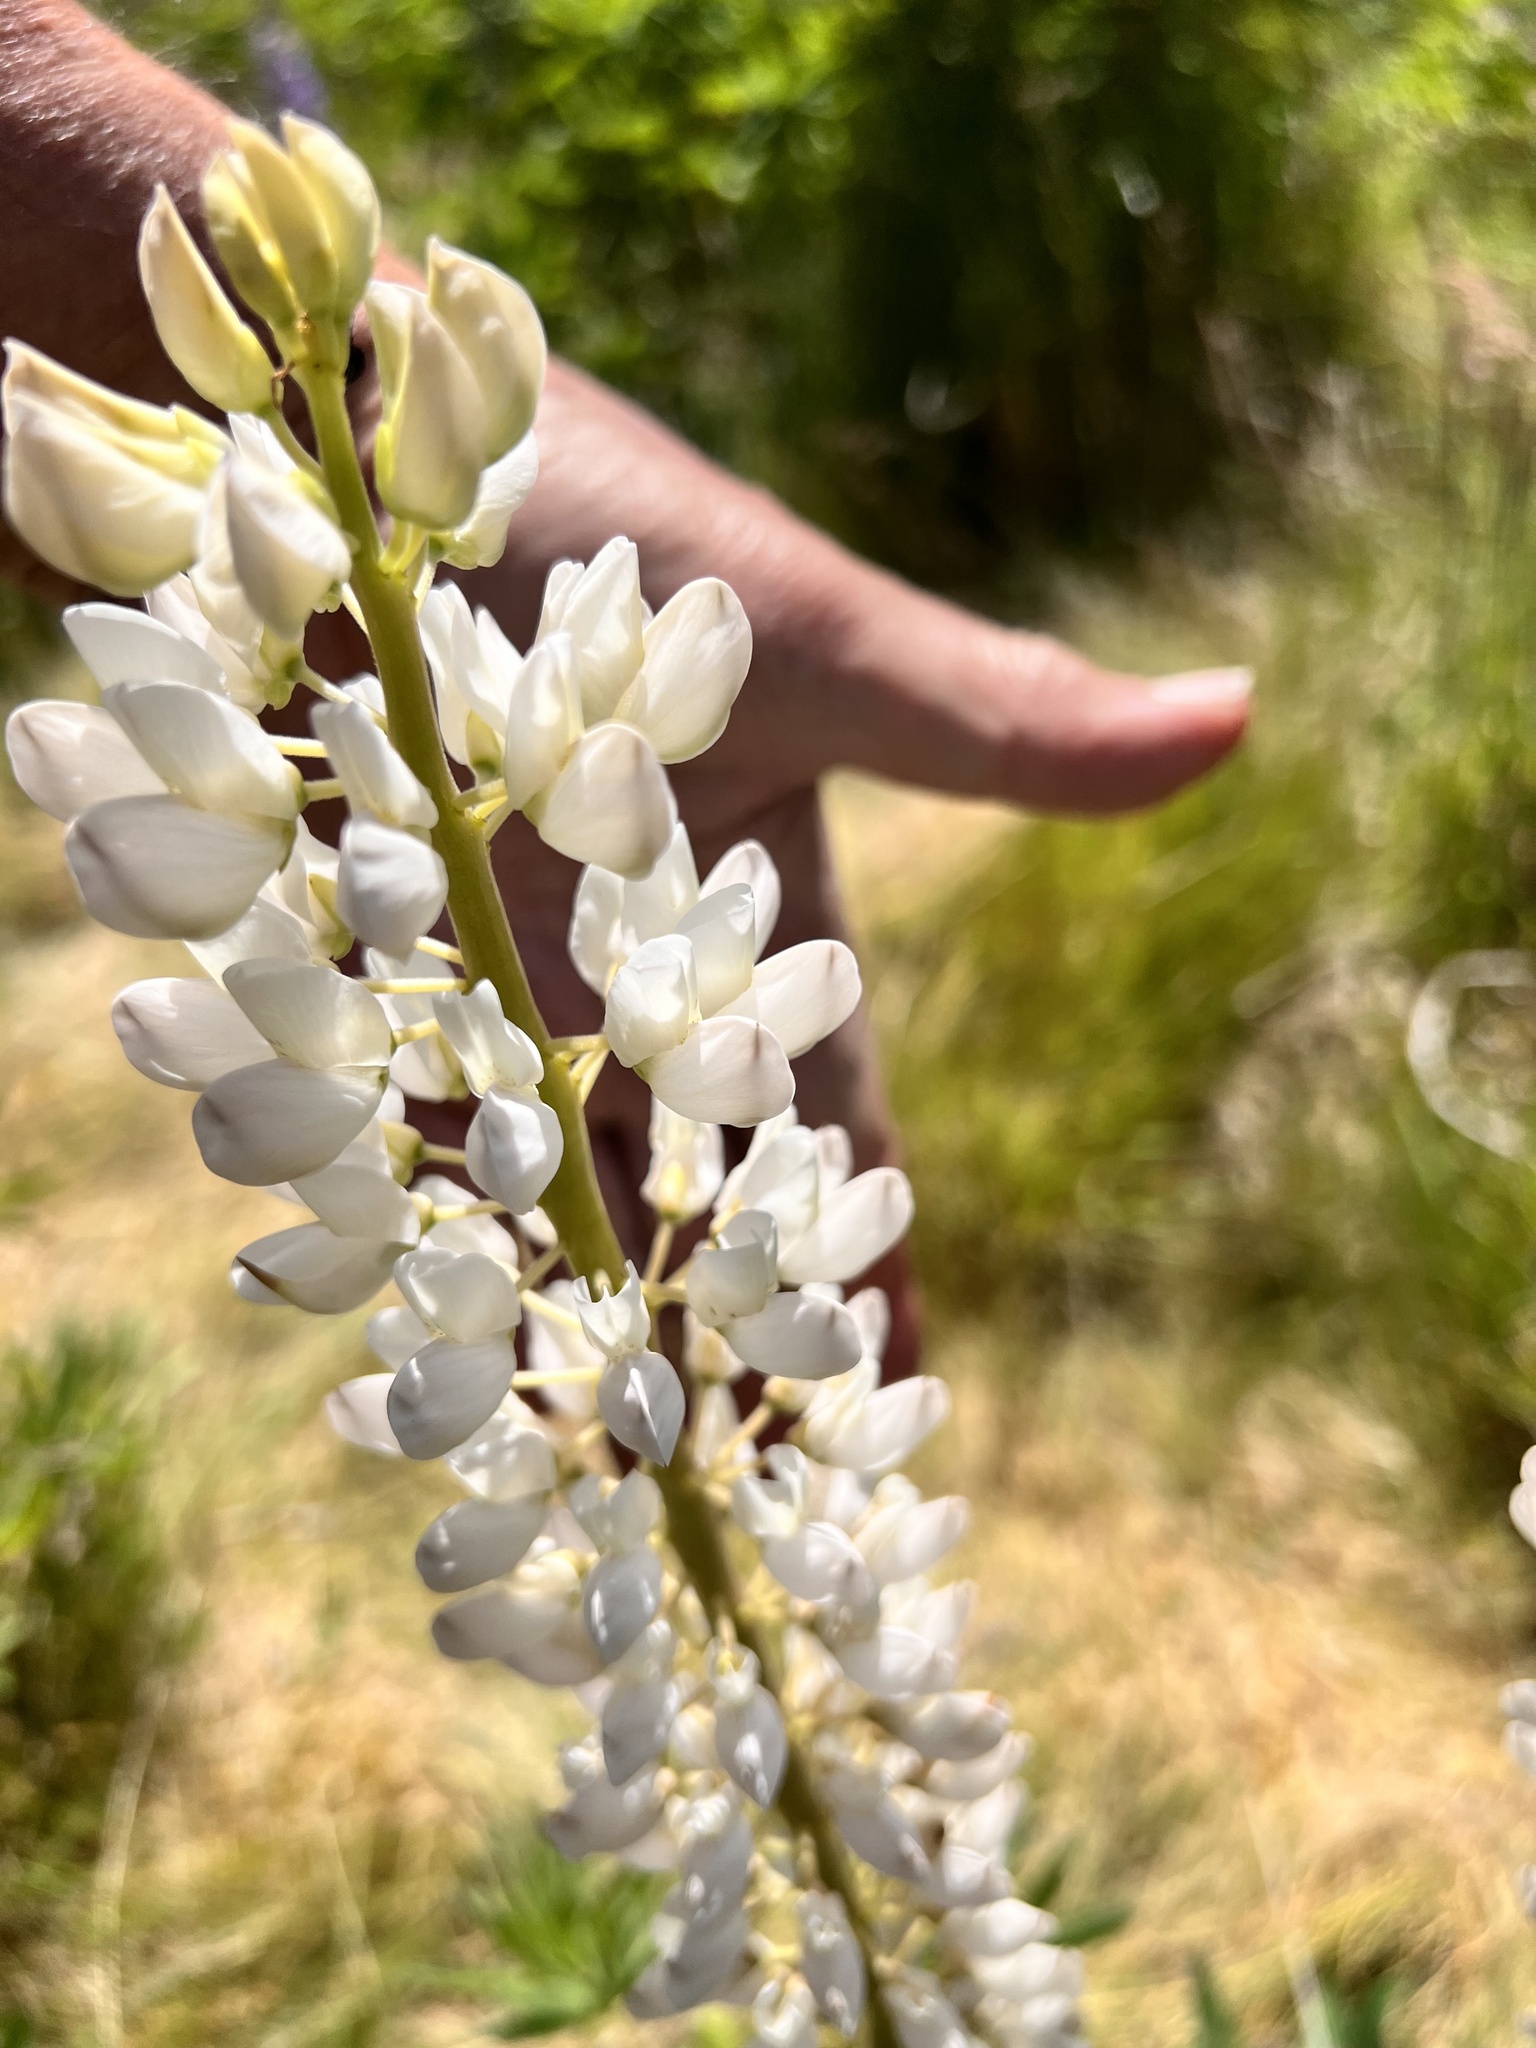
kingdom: Plantae
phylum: Tracheophyta
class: Magnoliopsida
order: Fabales
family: Fabaceae
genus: Lupinus
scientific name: Lupinus polyphyllus
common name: Garden lupin
